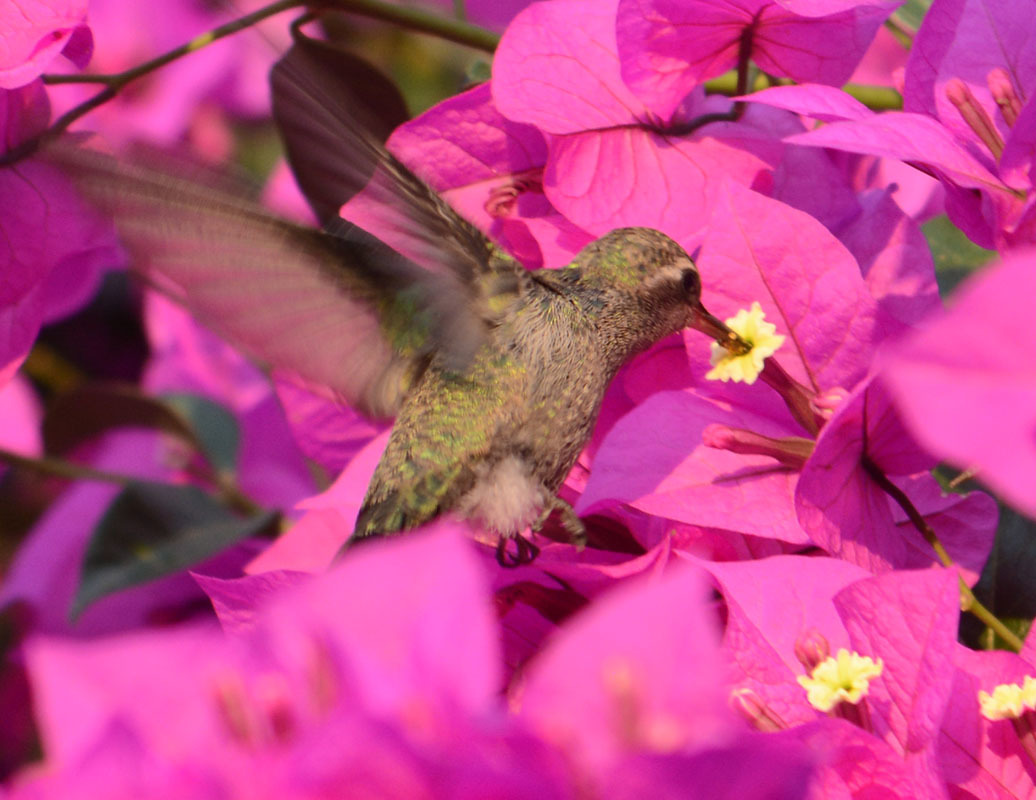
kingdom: Animalia
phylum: Chordata
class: Aves
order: Apodiformes
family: Trochilidae
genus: Cynanthus
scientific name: Cynanthus latirostris
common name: Broad-billed hummingbird
